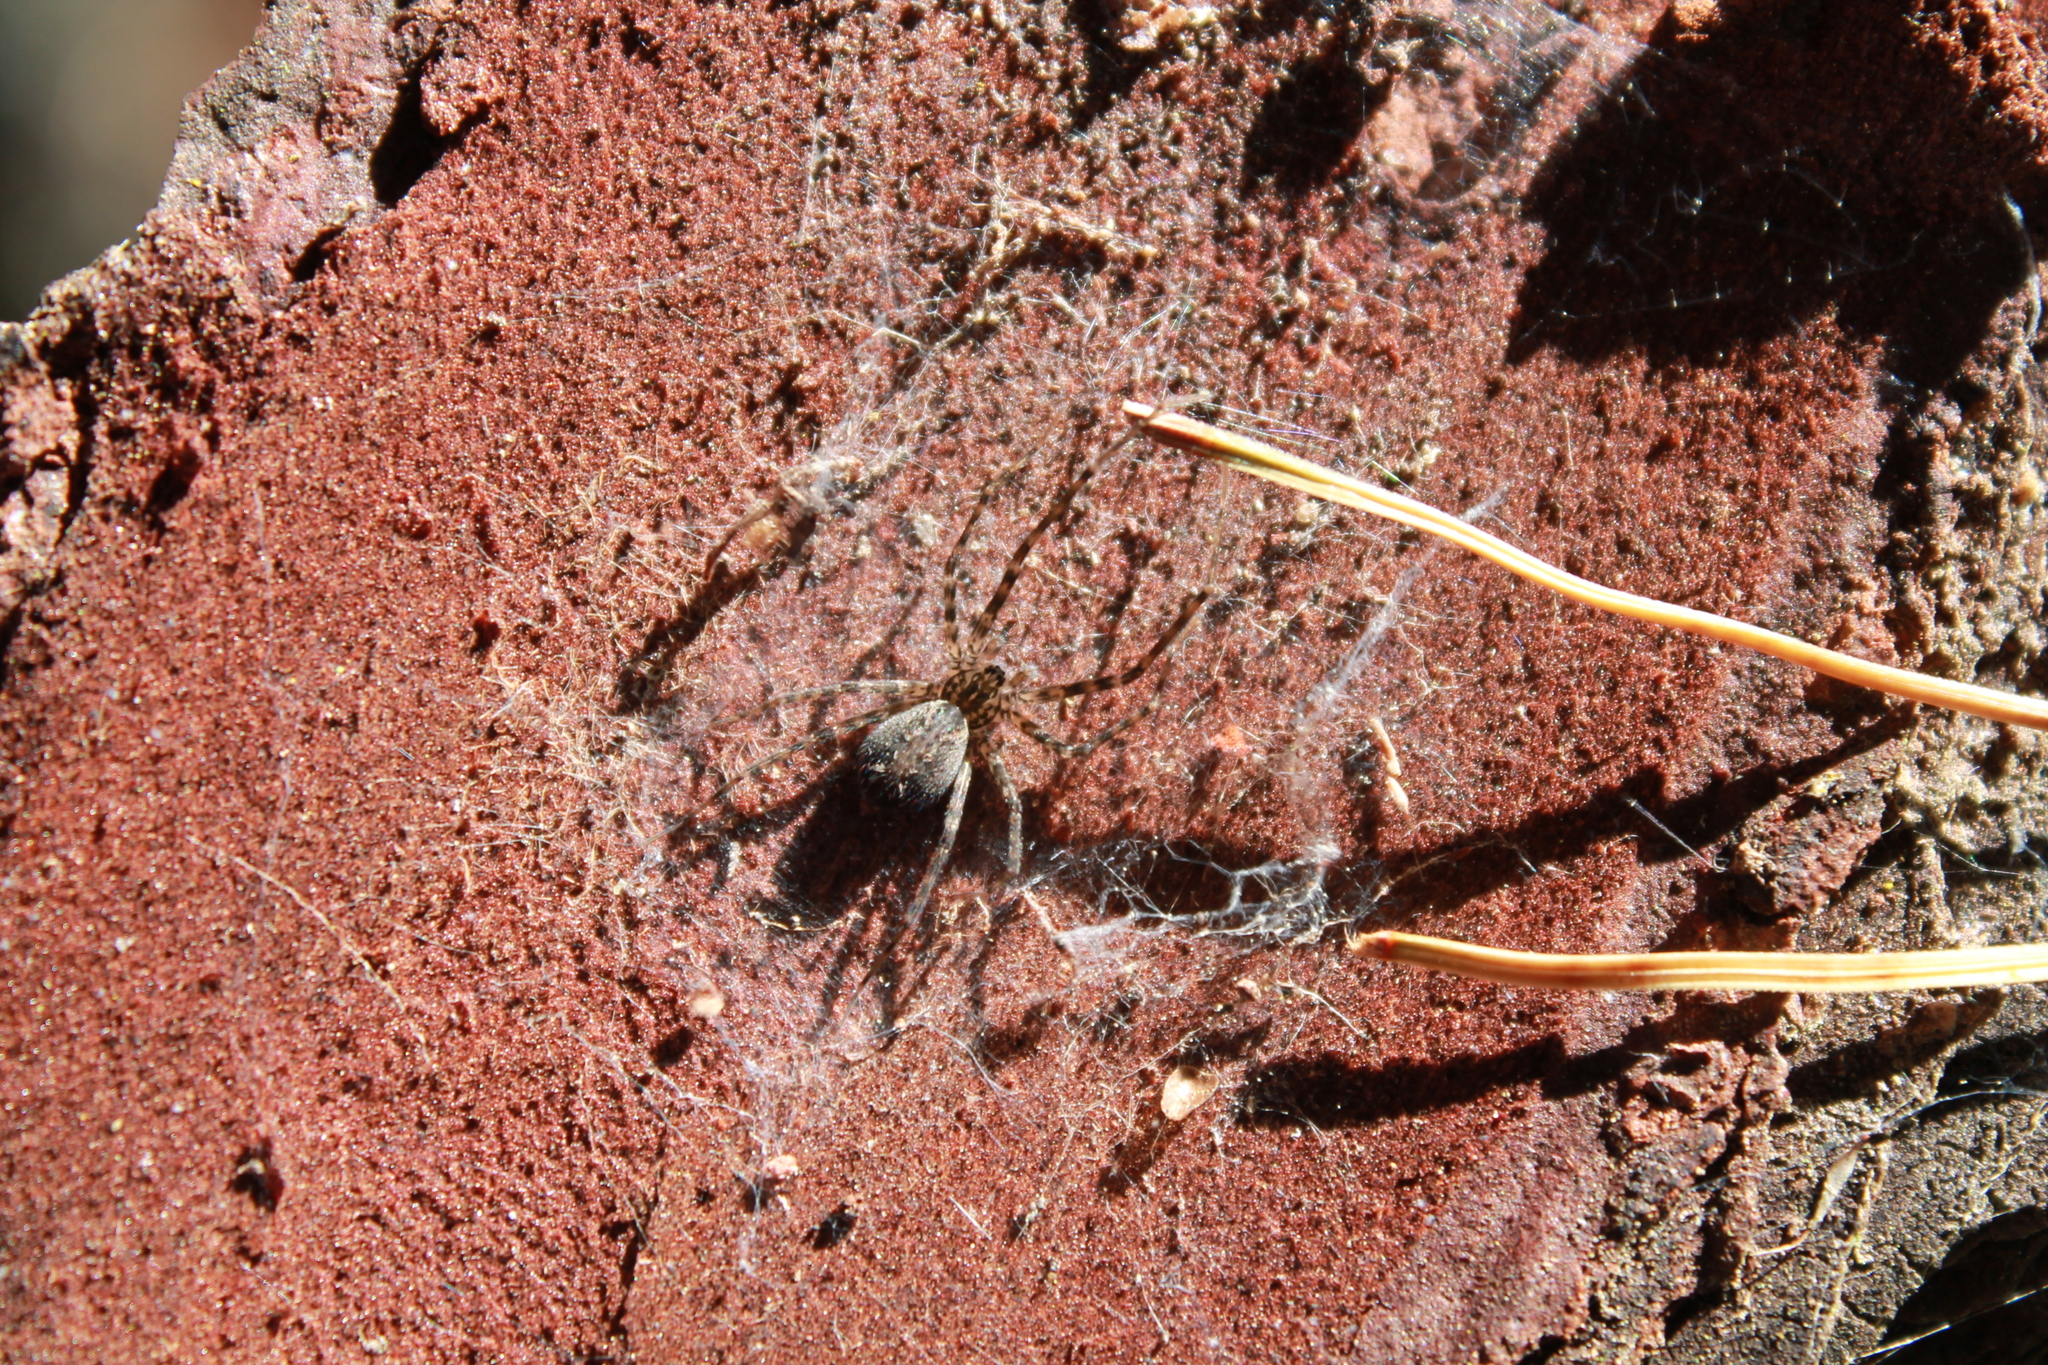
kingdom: Animalia
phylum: Arthropoda
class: Arachnida
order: Araneae
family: Stiphidiidae
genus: Stiphidion
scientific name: Stiphidion facetum
